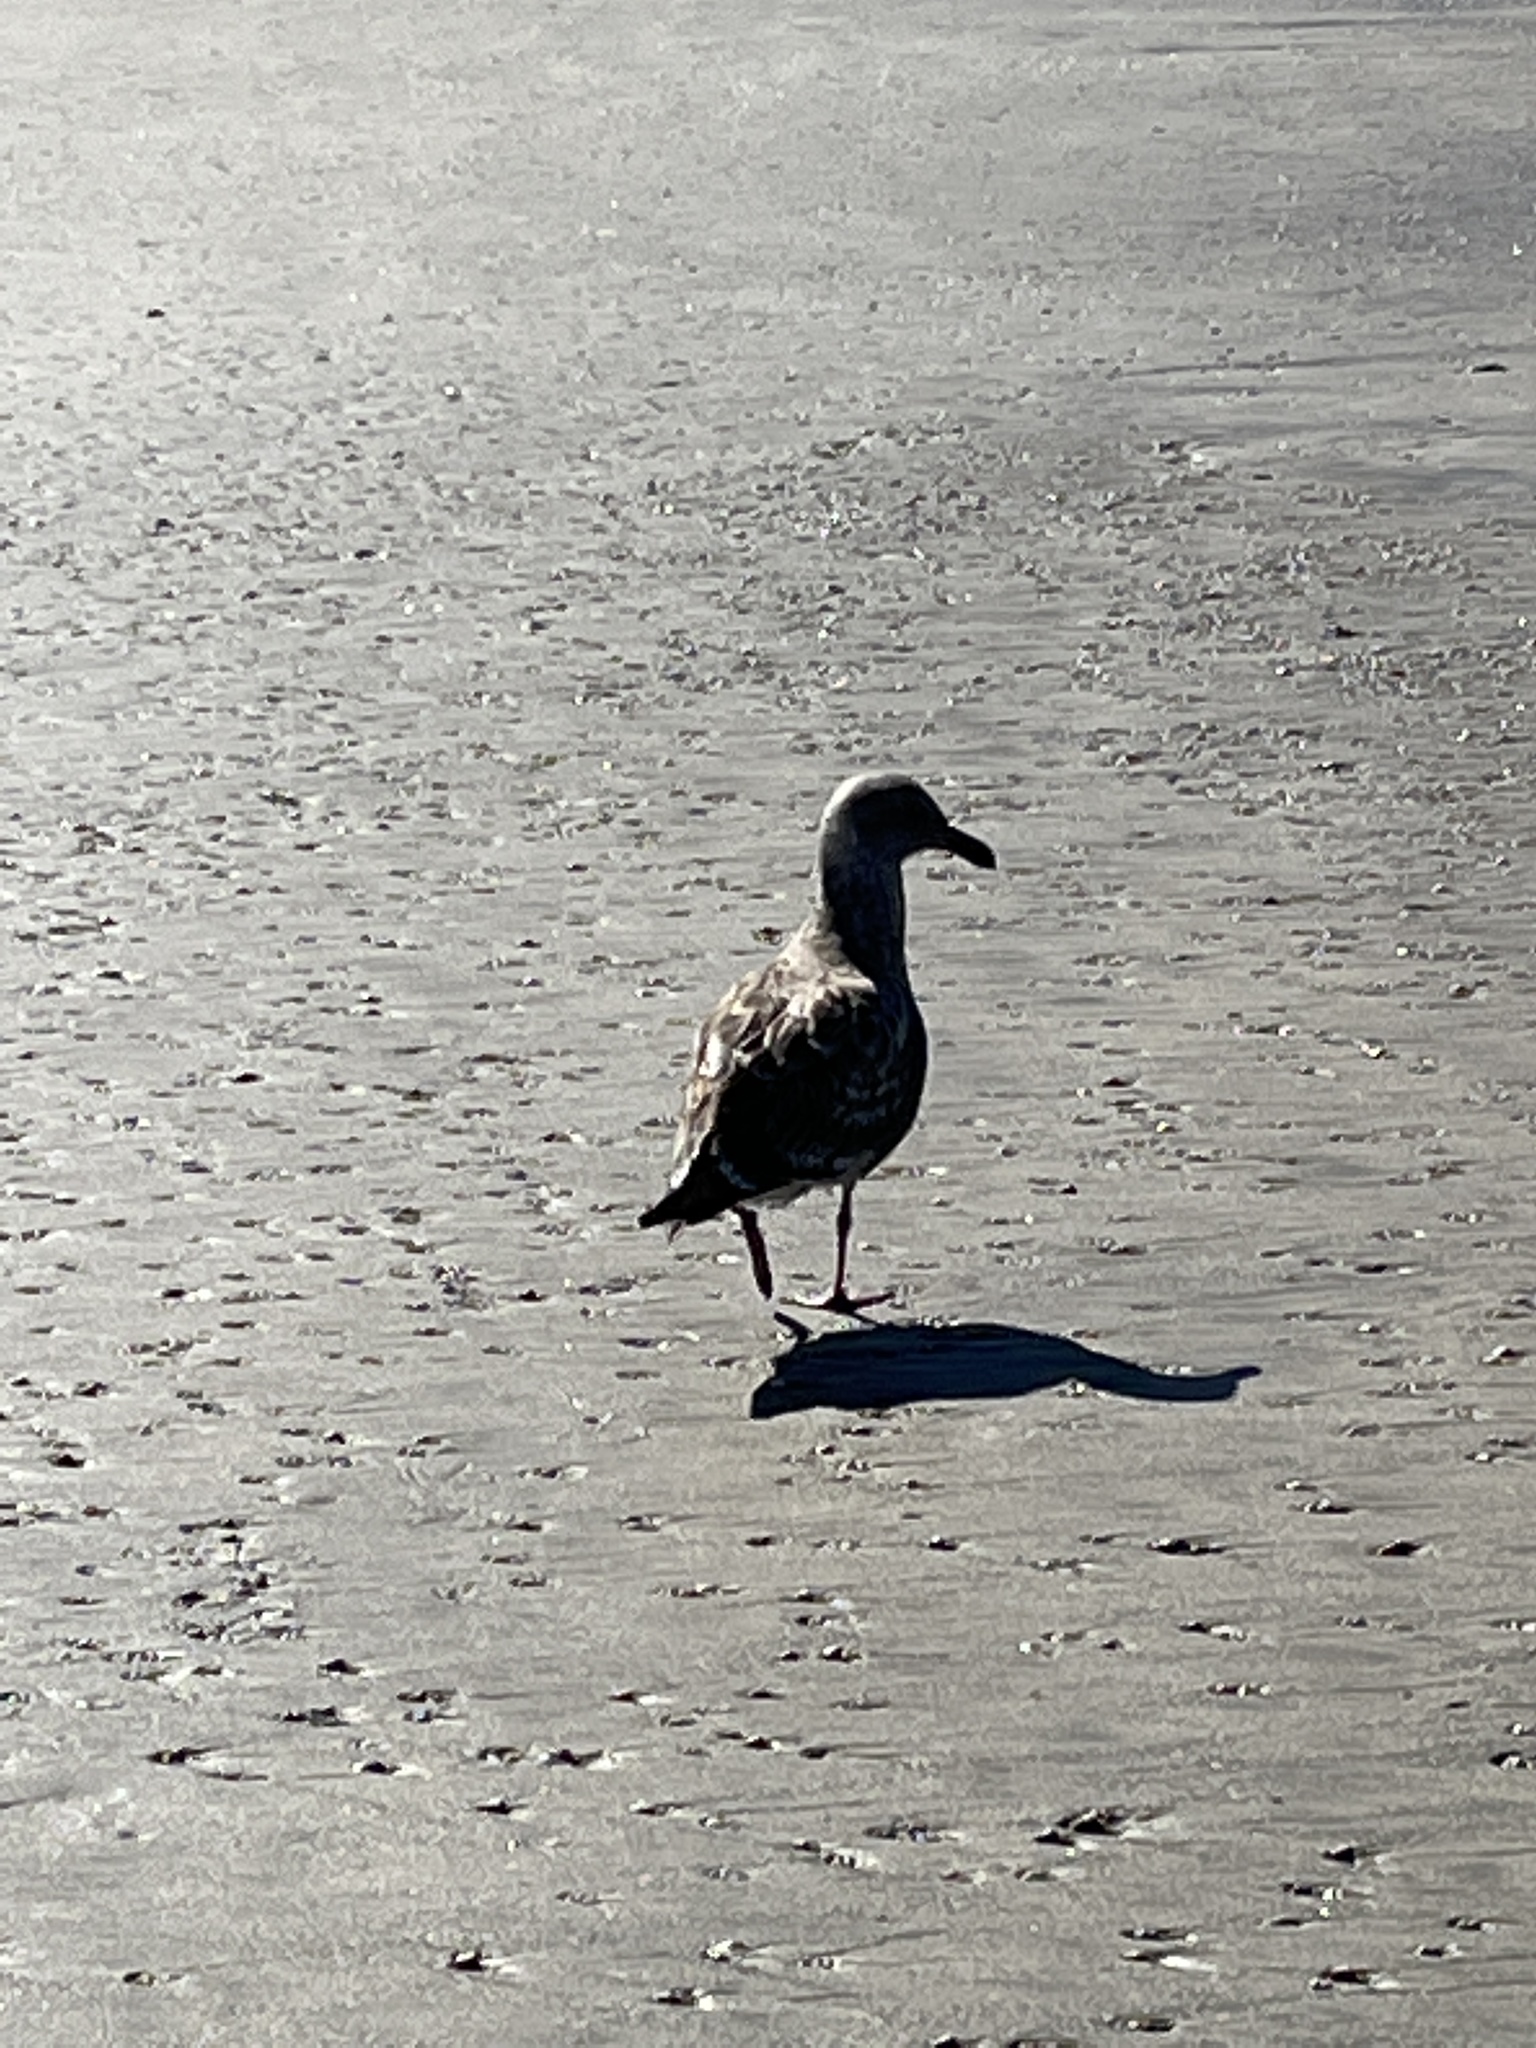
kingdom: Animalia
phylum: Chordata
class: Aves
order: Charadriiformes
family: Laridae
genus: Larus
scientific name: Larus occidentalis
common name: Western gull
